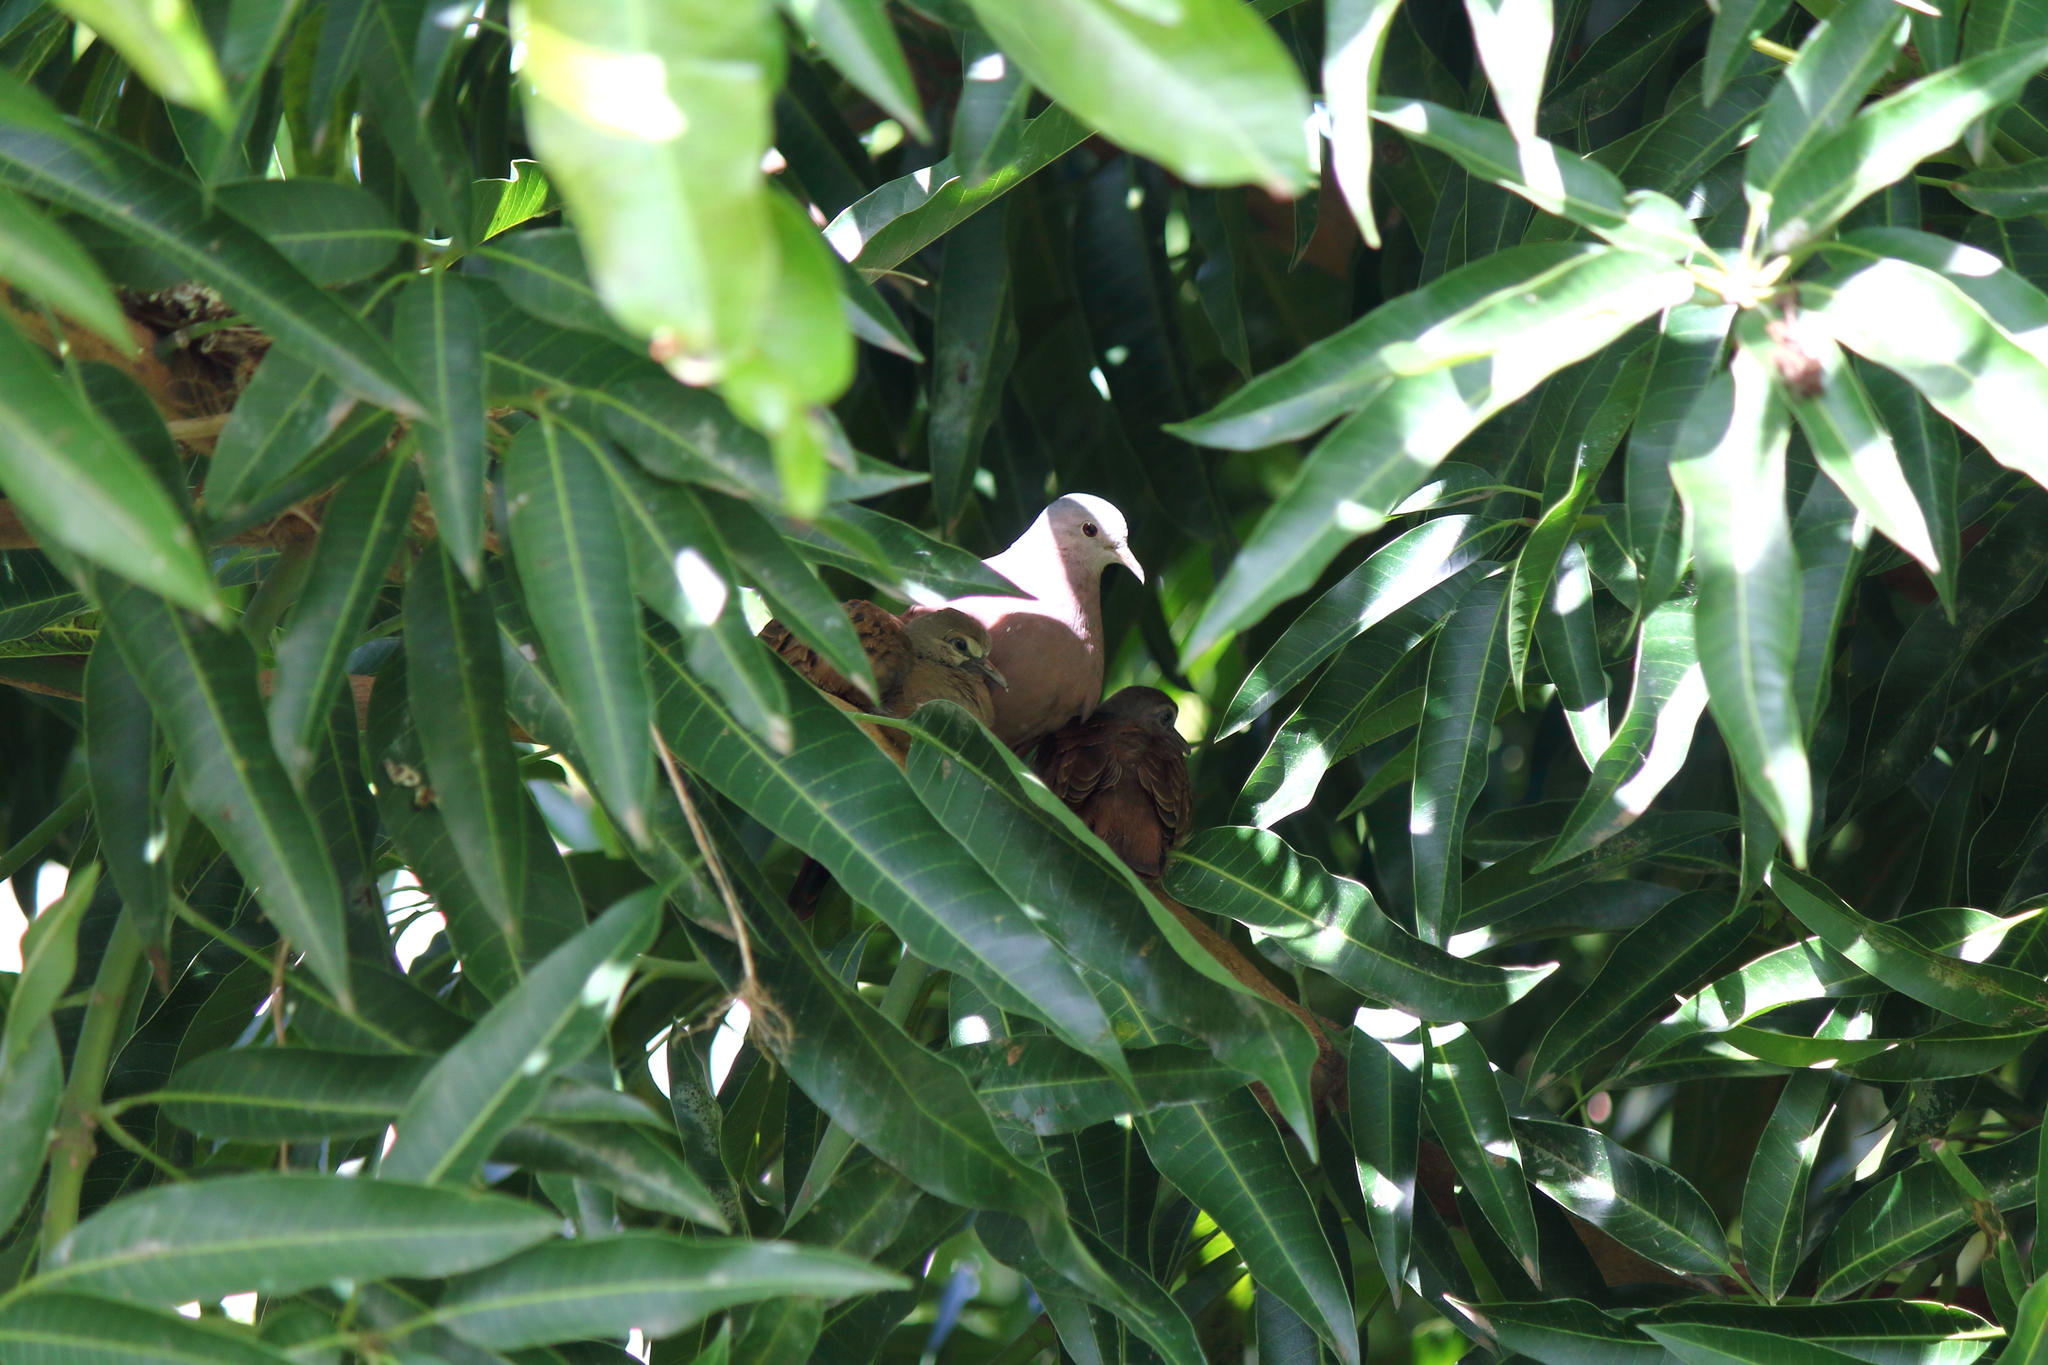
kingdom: Animalia
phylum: Chordata
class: Aves
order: Columbiformes
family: Columbidae
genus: Columbina
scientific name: Columbina talpacoti
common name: Ruddy ground dove
